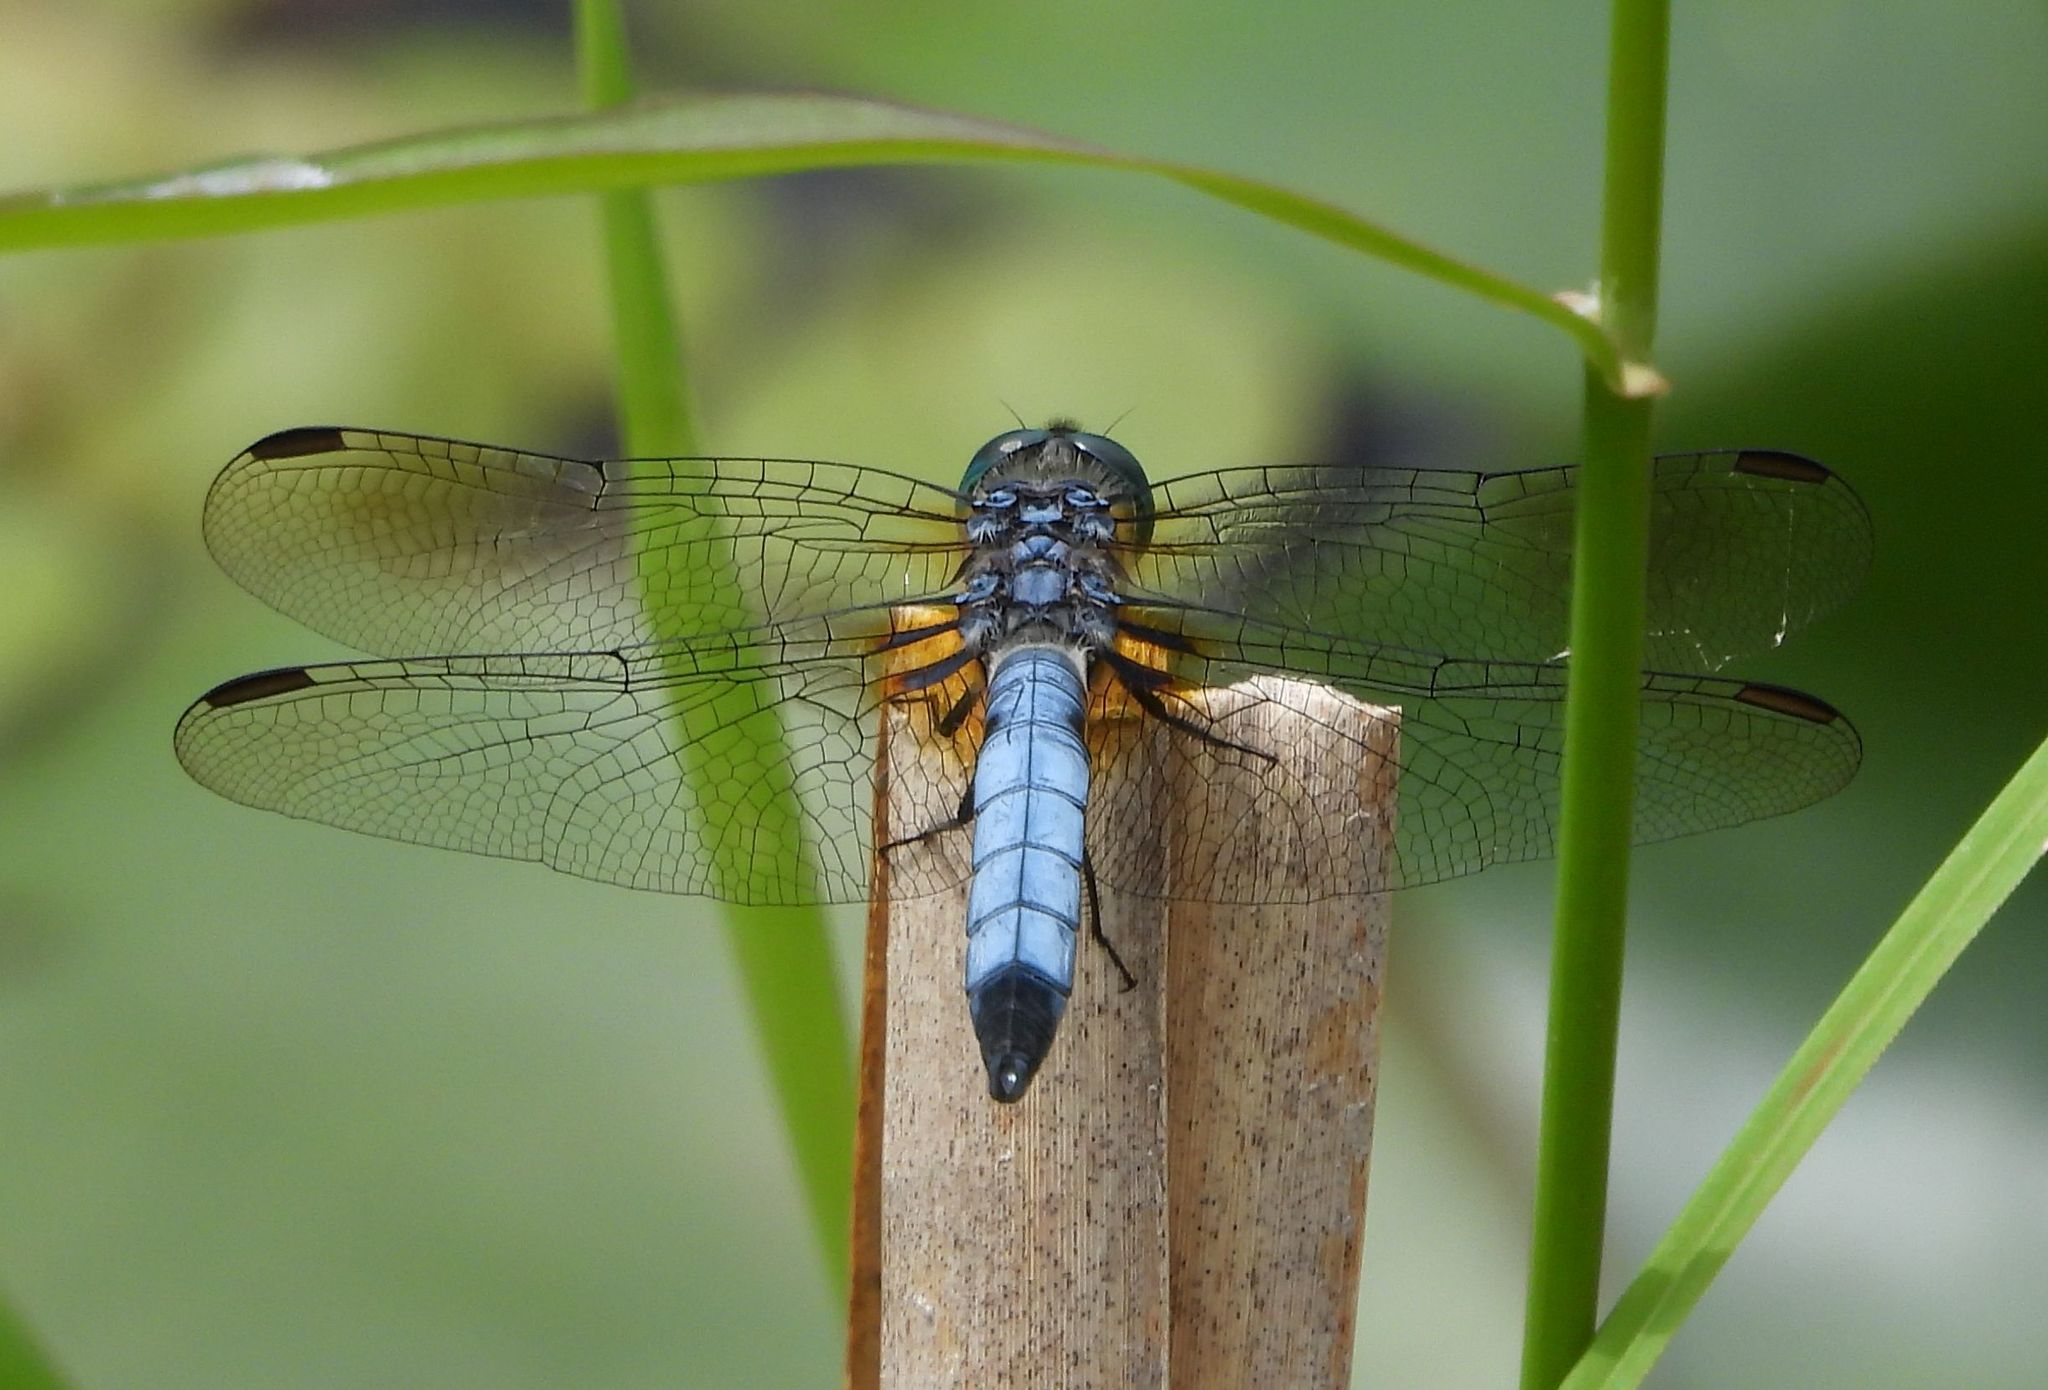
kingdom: Animalia
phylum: Arthropoda
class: Insecta
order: Odonata
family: Libellulidae
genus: Pachydiplax
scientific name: Pachydiplax longipennis
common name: Blue dasher
